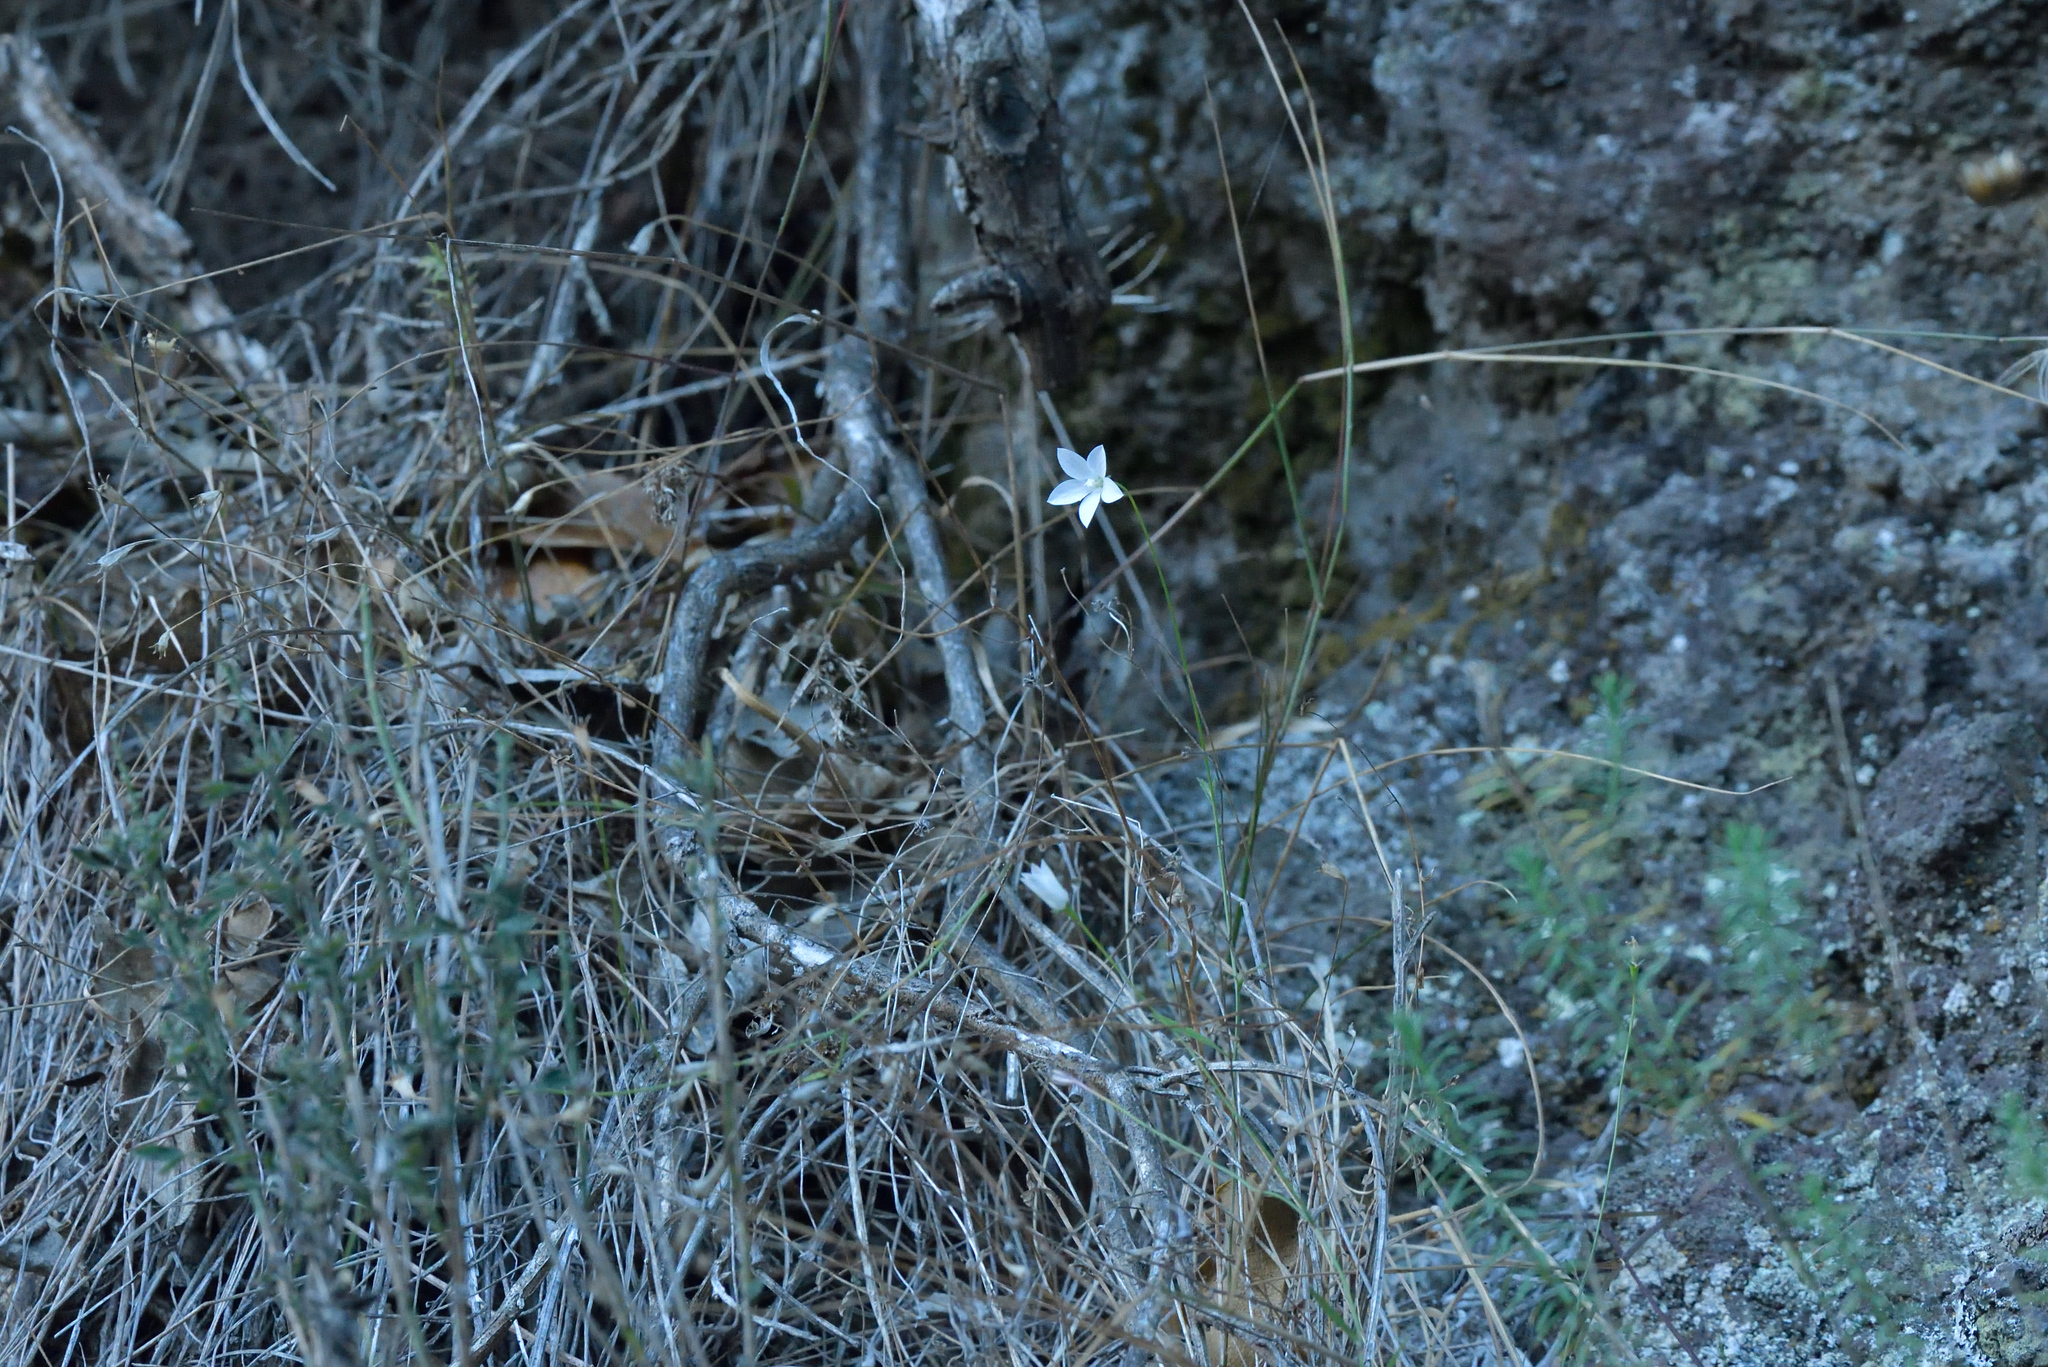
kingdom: Plantae
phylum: Tracheophyta
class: Magnoliopsida
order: Asterales
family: Campanulaceae
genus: Wahlenbergia
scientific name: Wahlenbergia rupestris
